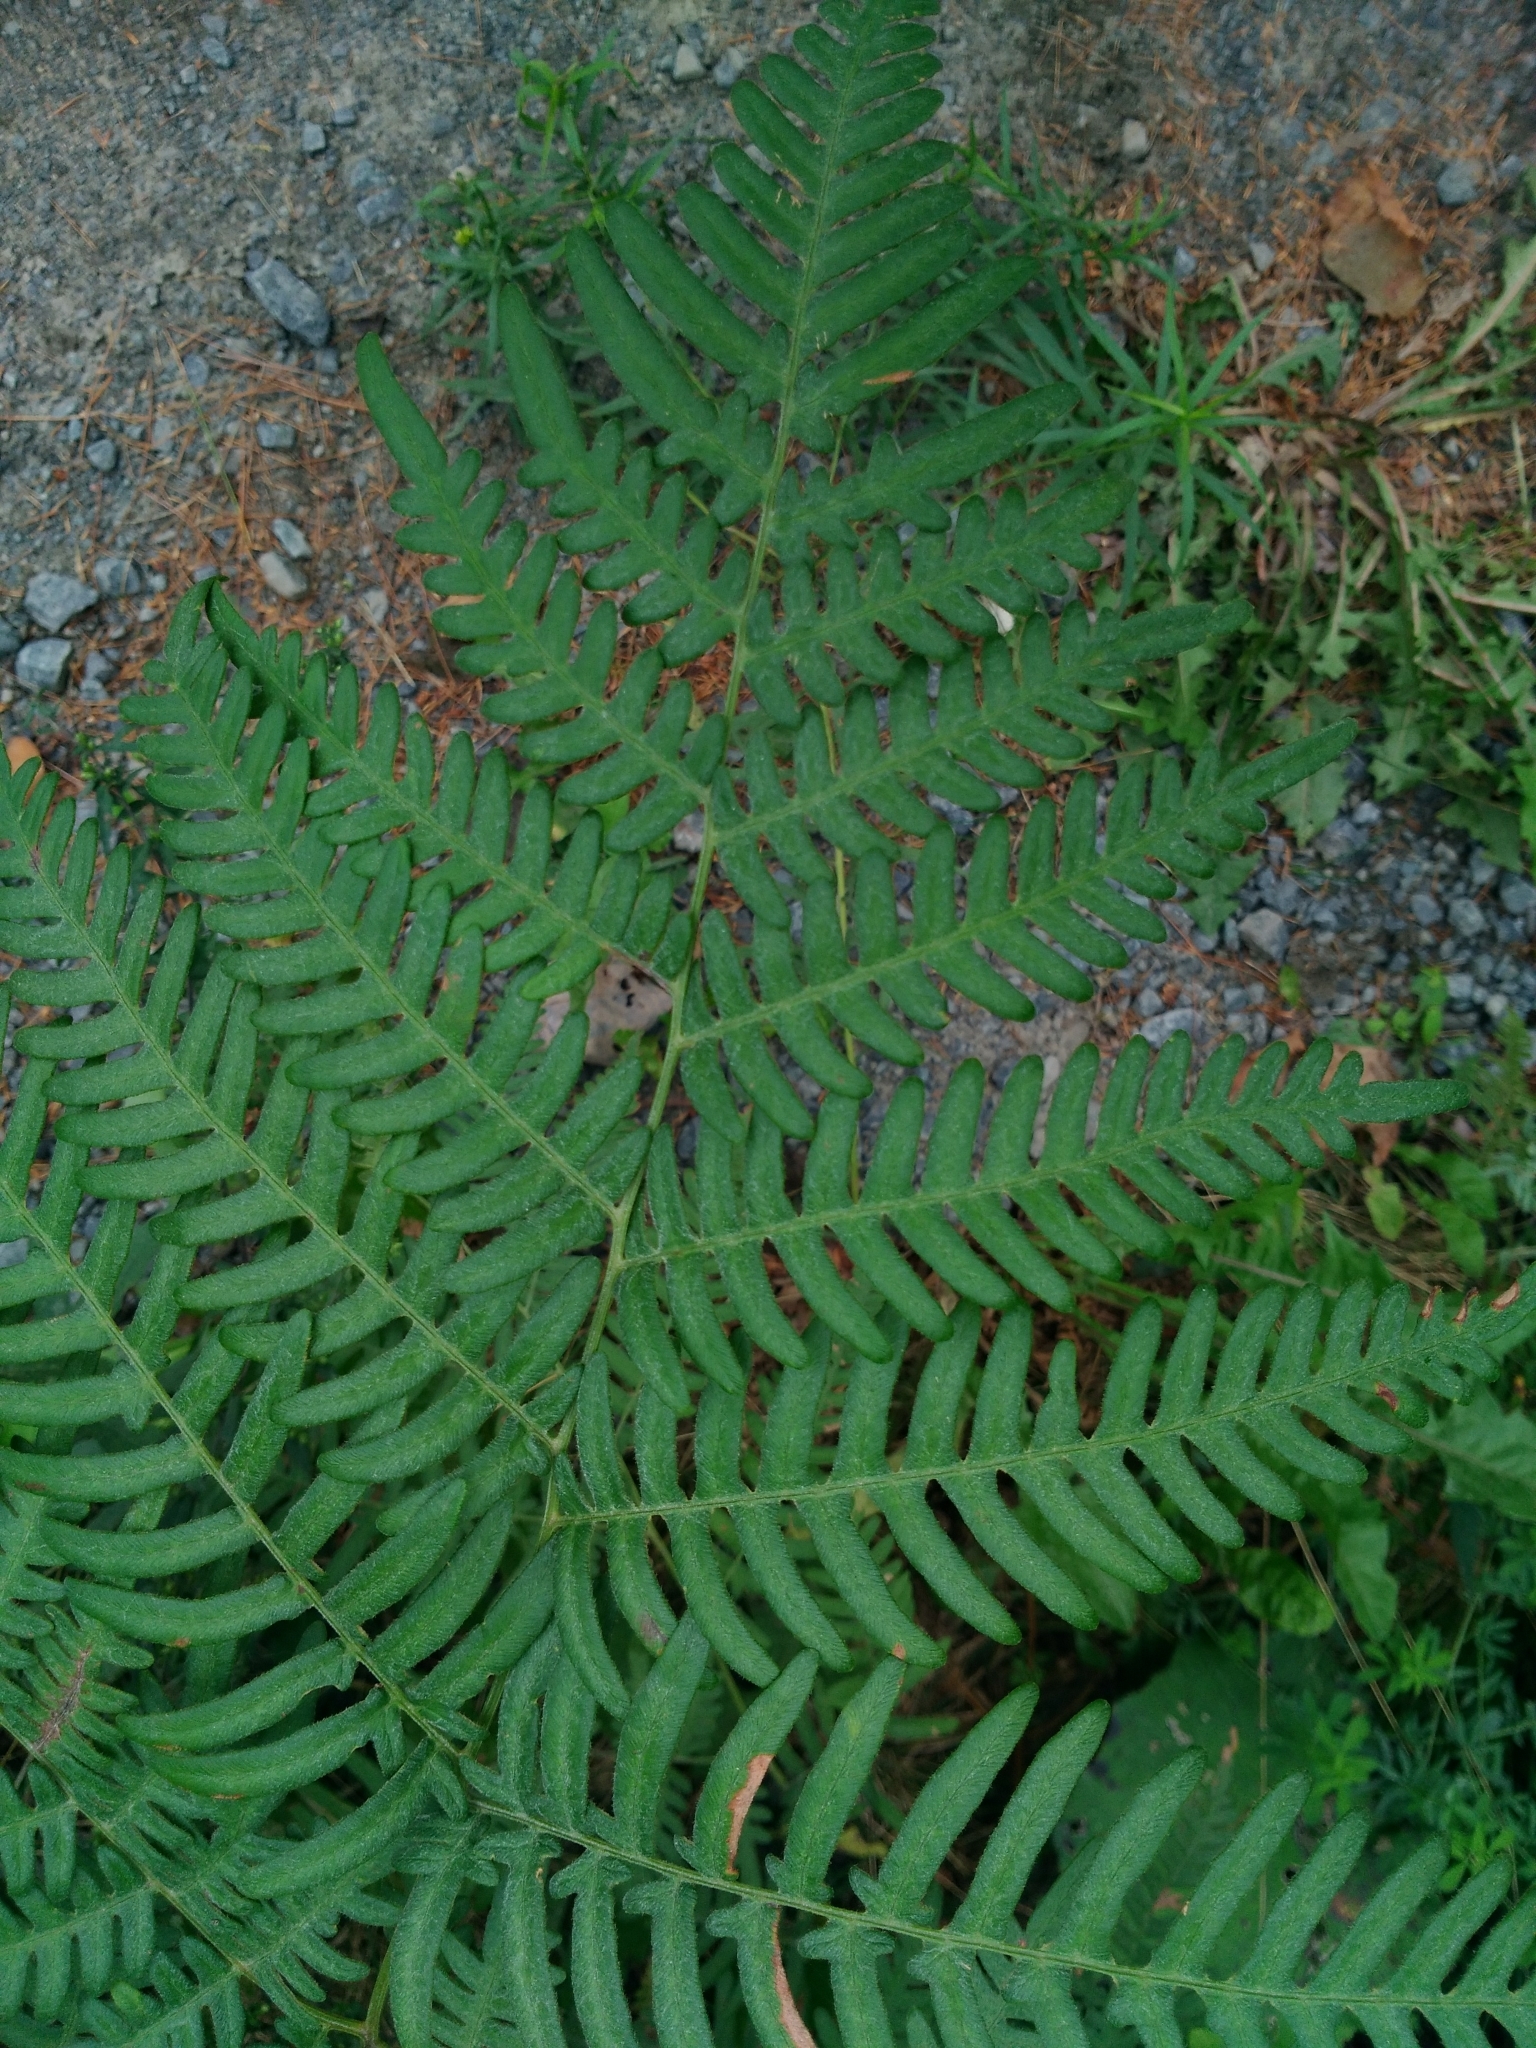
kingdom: Plantae
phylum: Tracheophyta
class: Polypodiopsida
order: Polypodiales
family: Dennstaedtiaceae
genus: Pteridium
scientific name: Pteridium aquilinum
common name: Bracken
